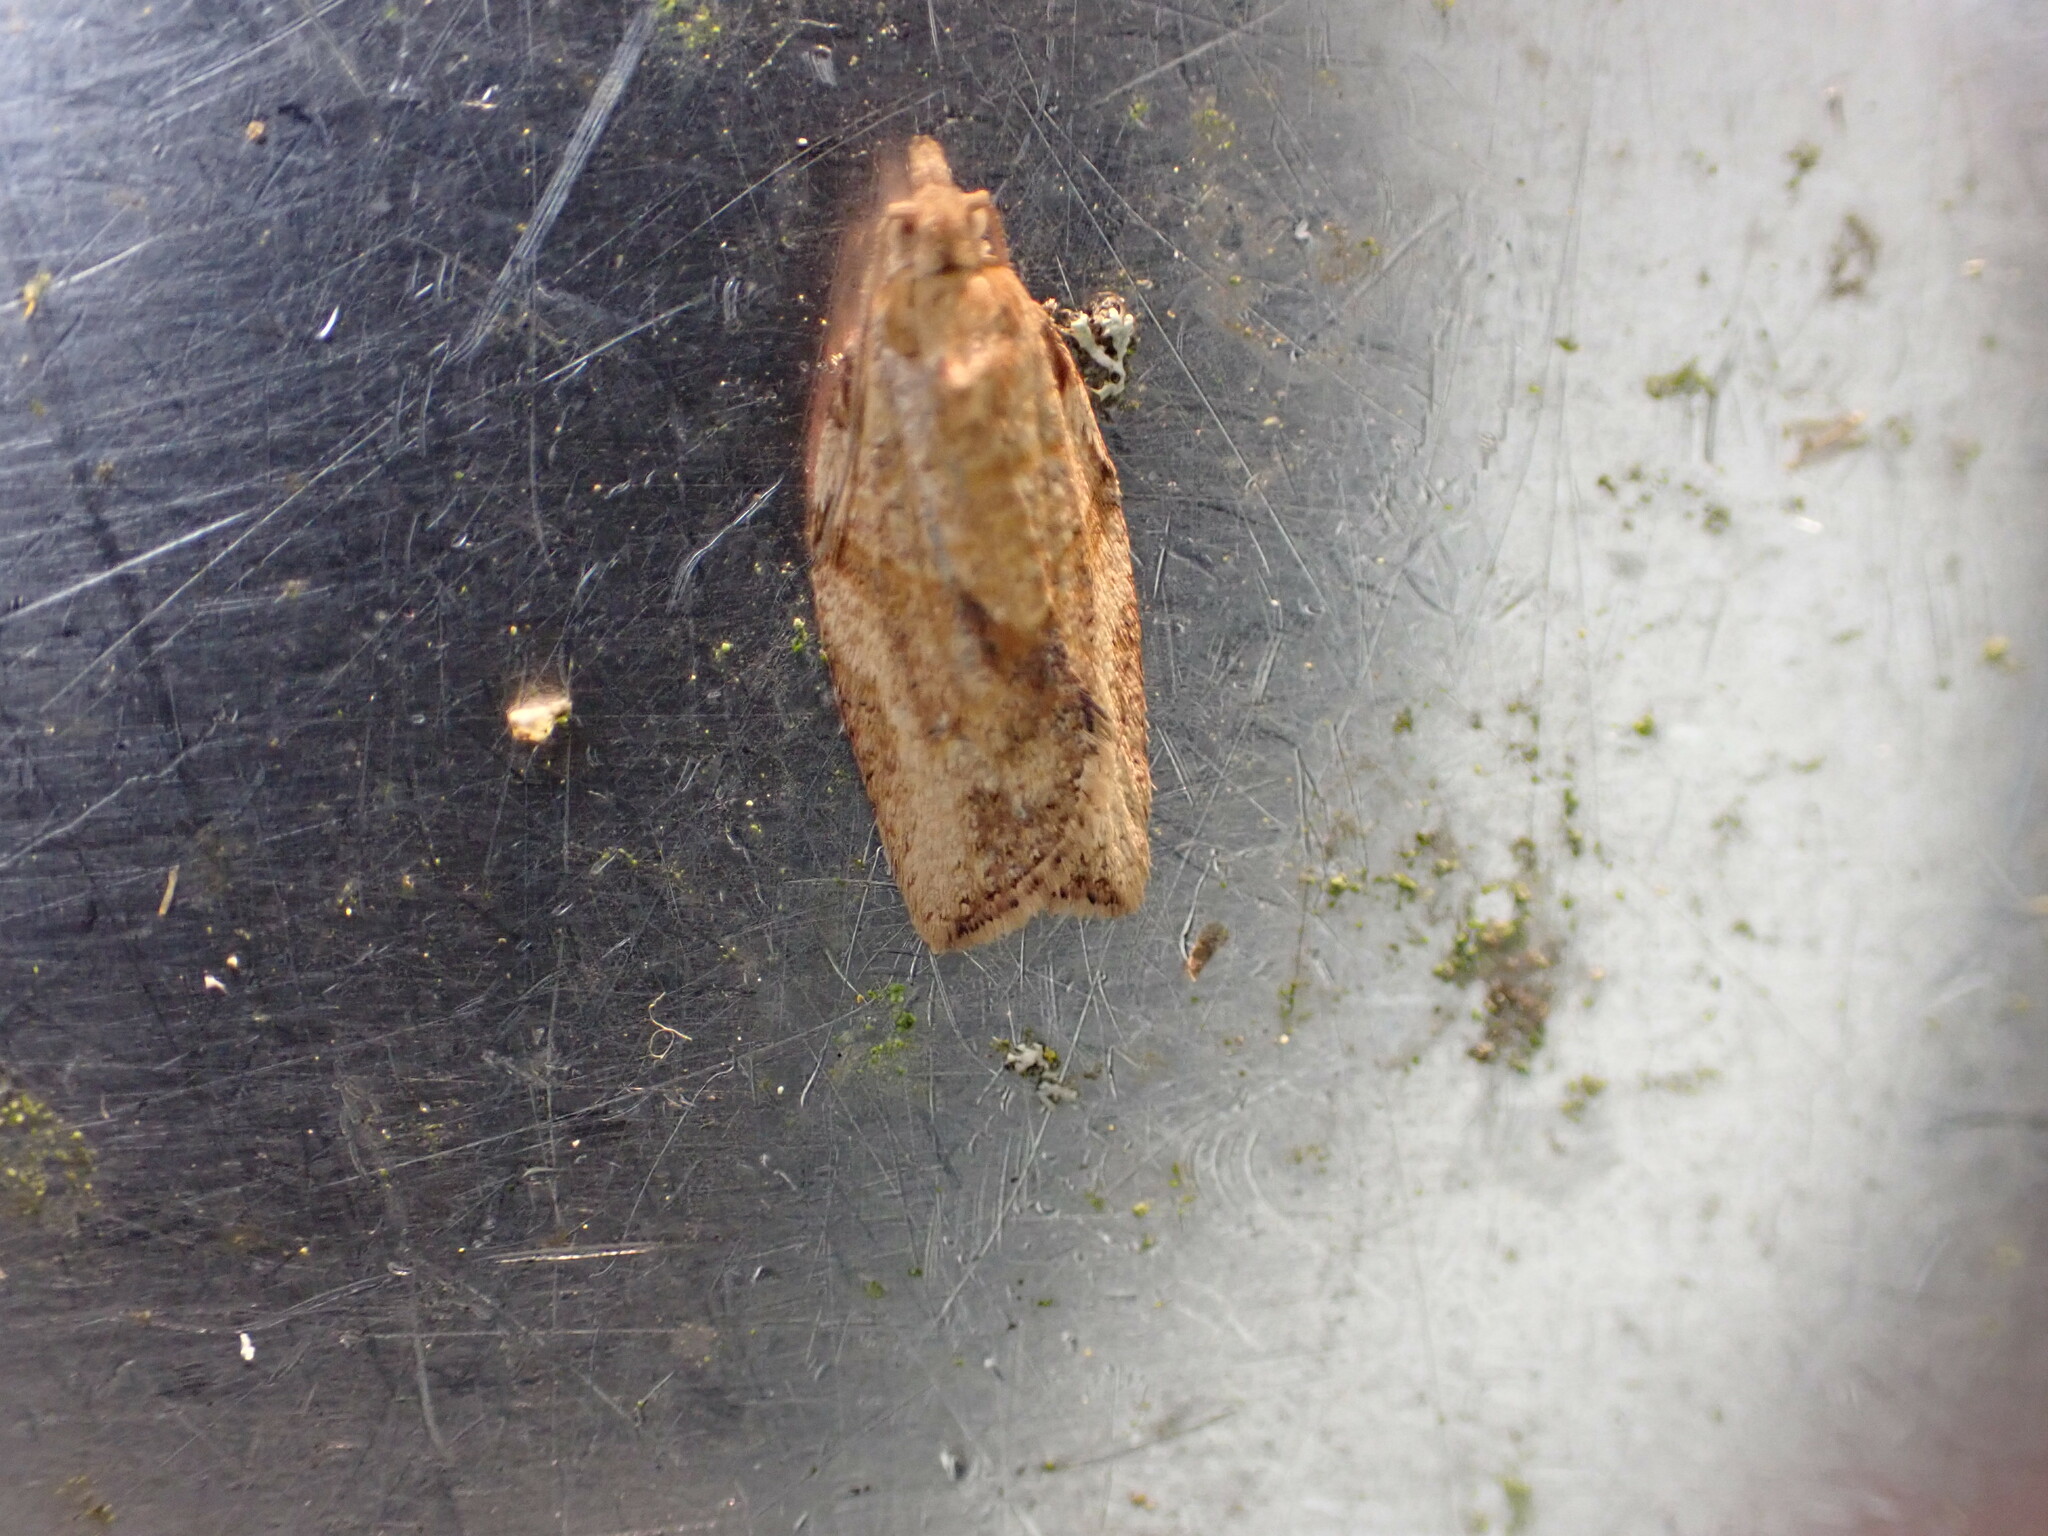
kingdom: Animalia
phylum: Arthropoda
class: Insecta
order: Lepidoptera
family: Tortricidae
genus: Epiphyas
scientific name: Epiphyas postvittana
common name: Light brown apple moth
